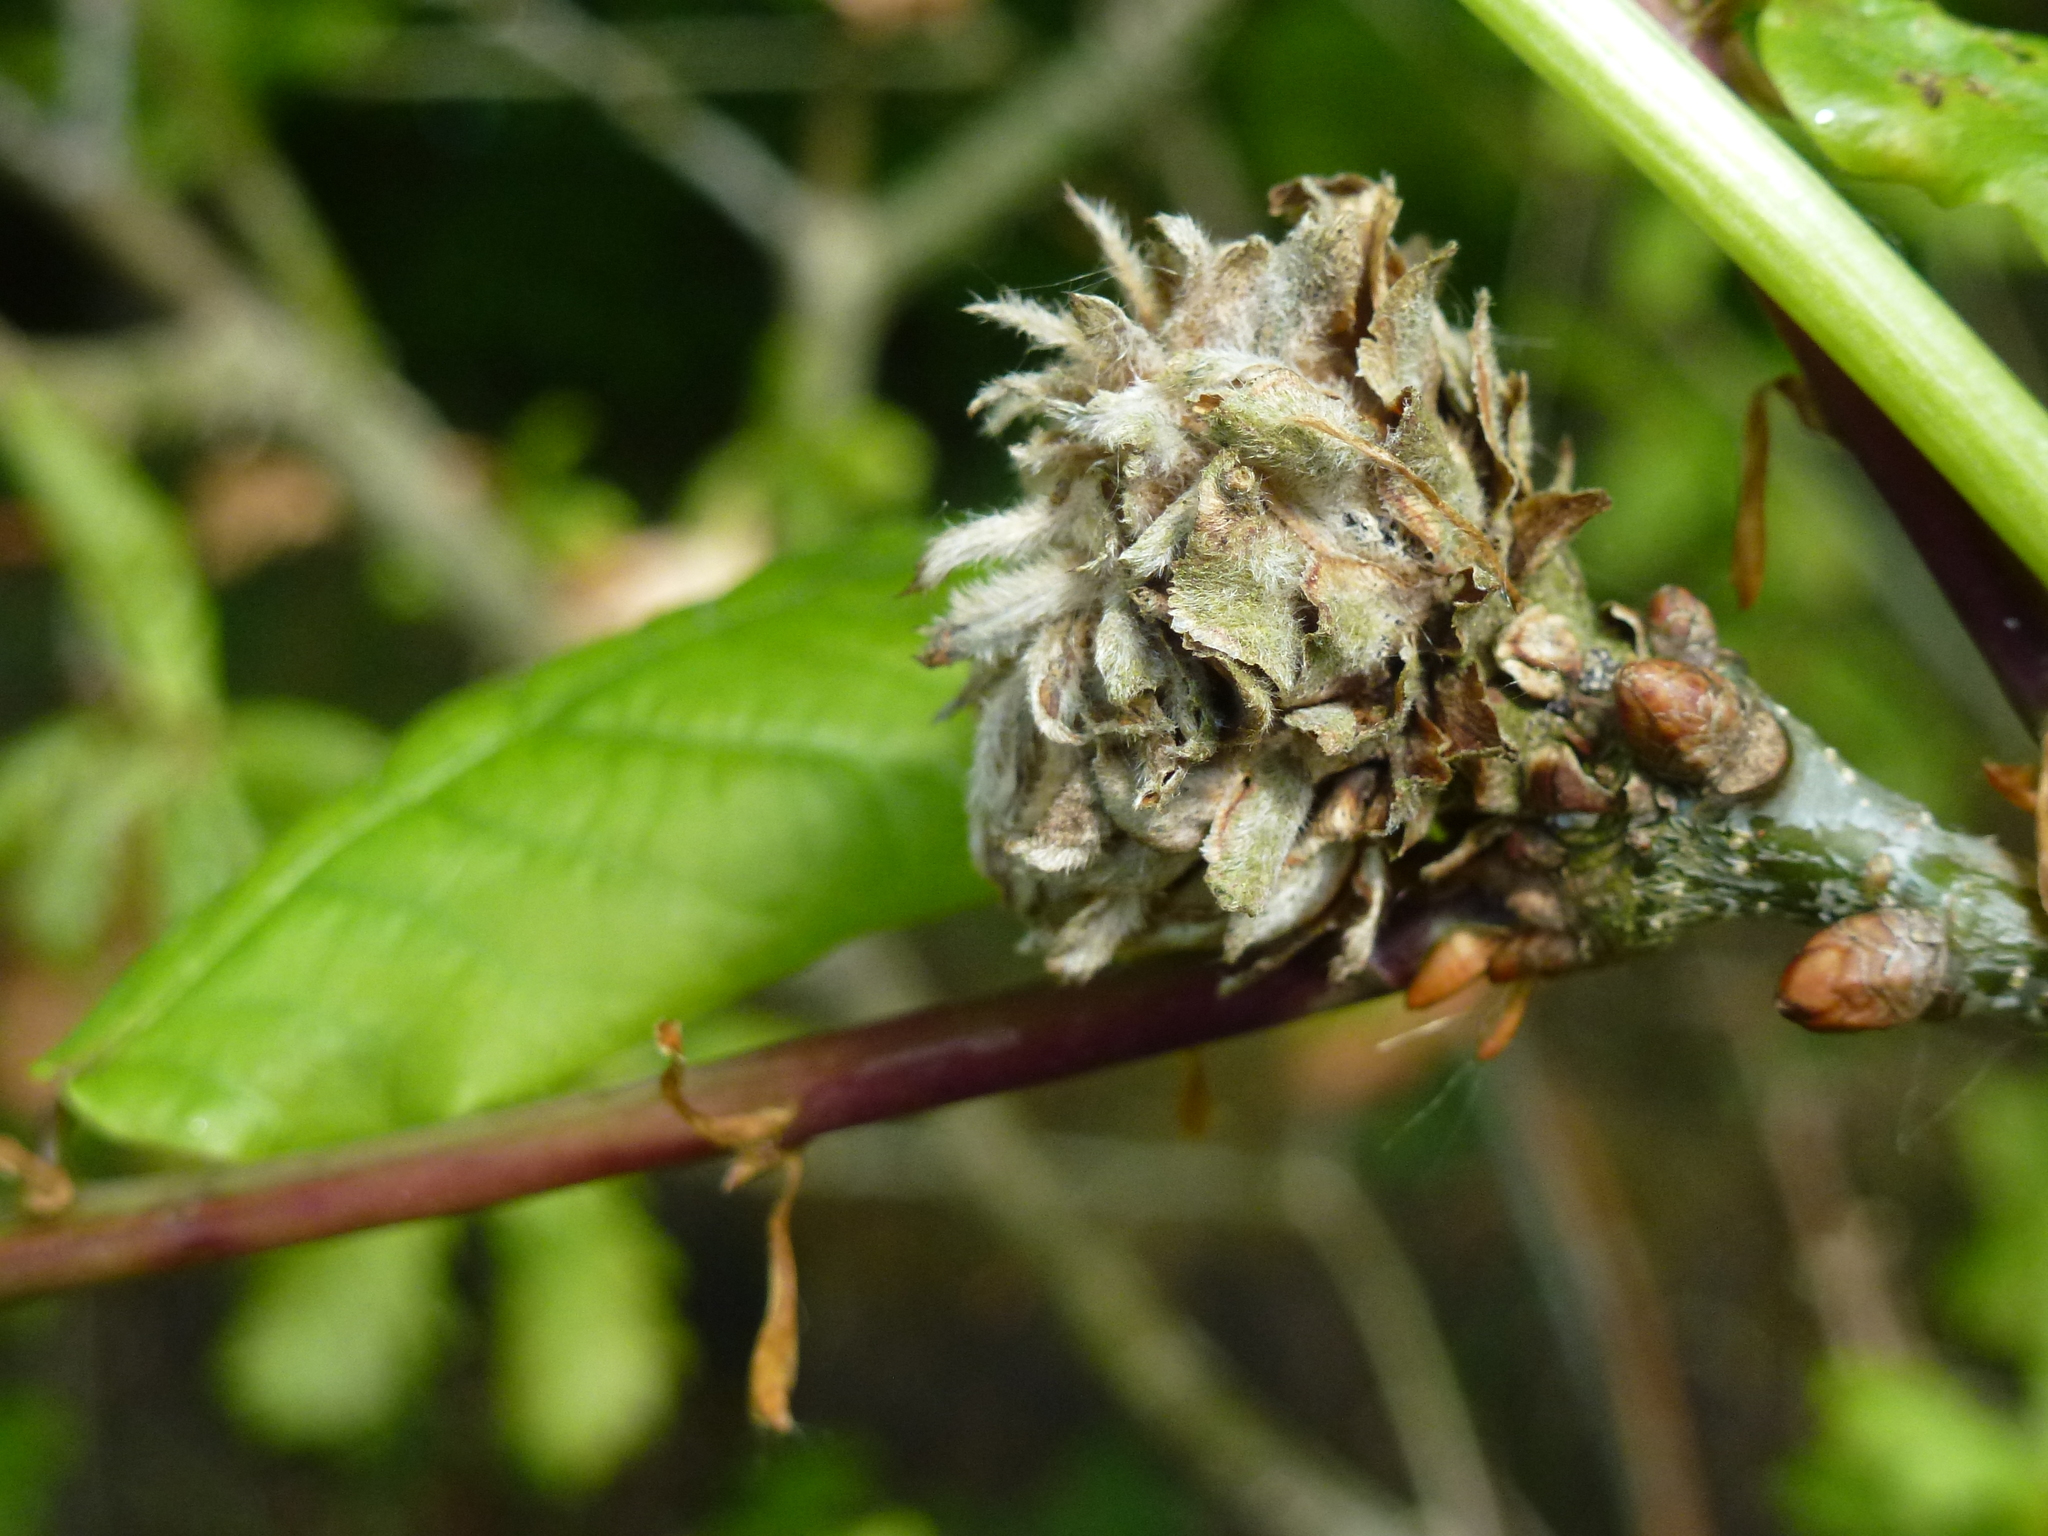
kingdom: Animalia
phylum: Arthropoda
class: Insecta
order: Hymenoptera
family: Cynipidae
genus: Andricus
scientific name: Andricus foecundatrix
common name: Artichoke gall
